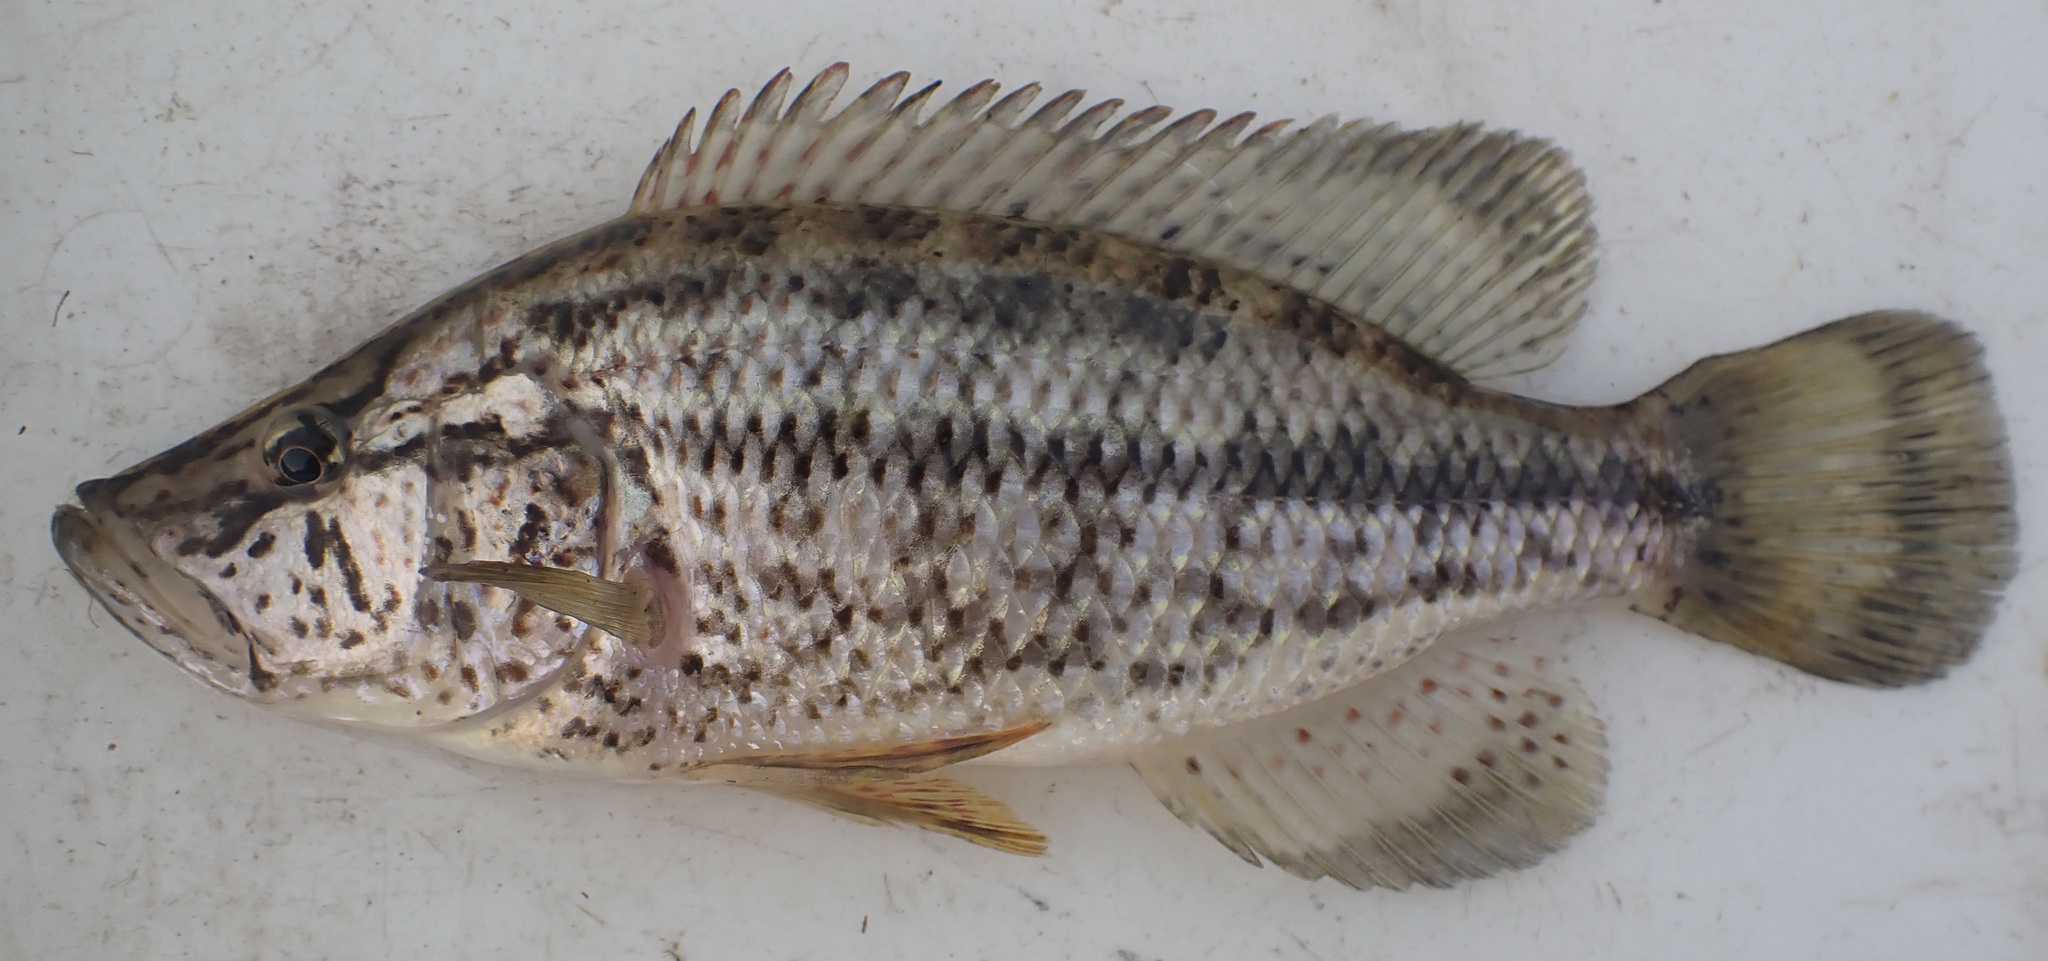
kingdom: Animalia
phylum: Chordata
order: Perciformes
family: Cichlidae
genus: Serranochromis
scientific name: Serranochromis angusticeps
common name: Thinface largemouth
